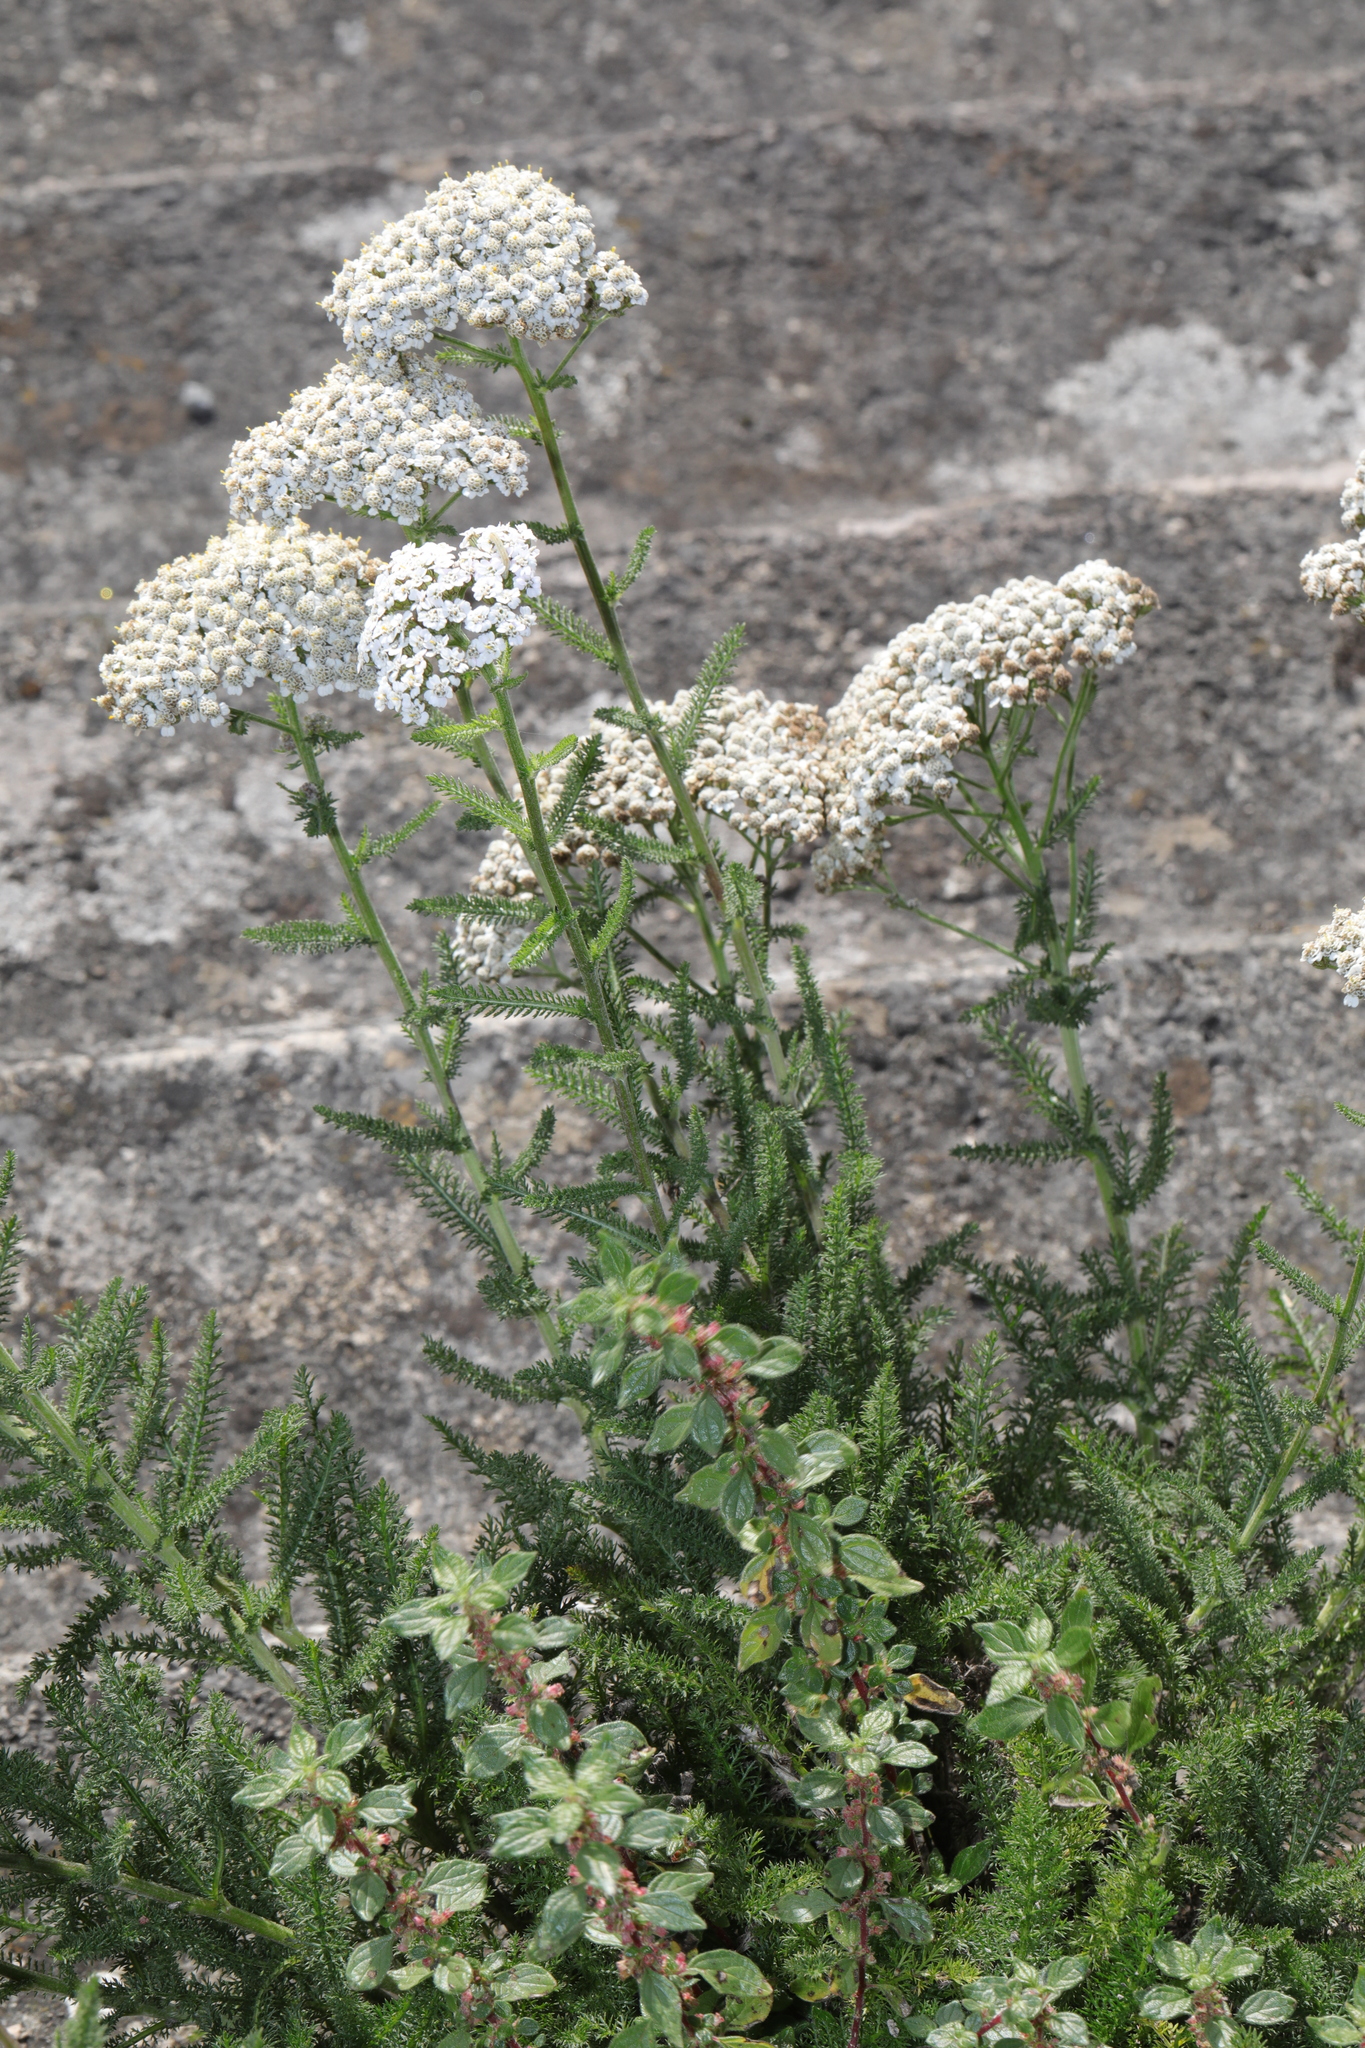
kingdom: Plantae
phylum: Tracheophyta
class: Magnoliopsida
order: Asterales
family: Asteraceae
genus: Achillea
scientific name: Achillea millefolium
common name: Yarrow
